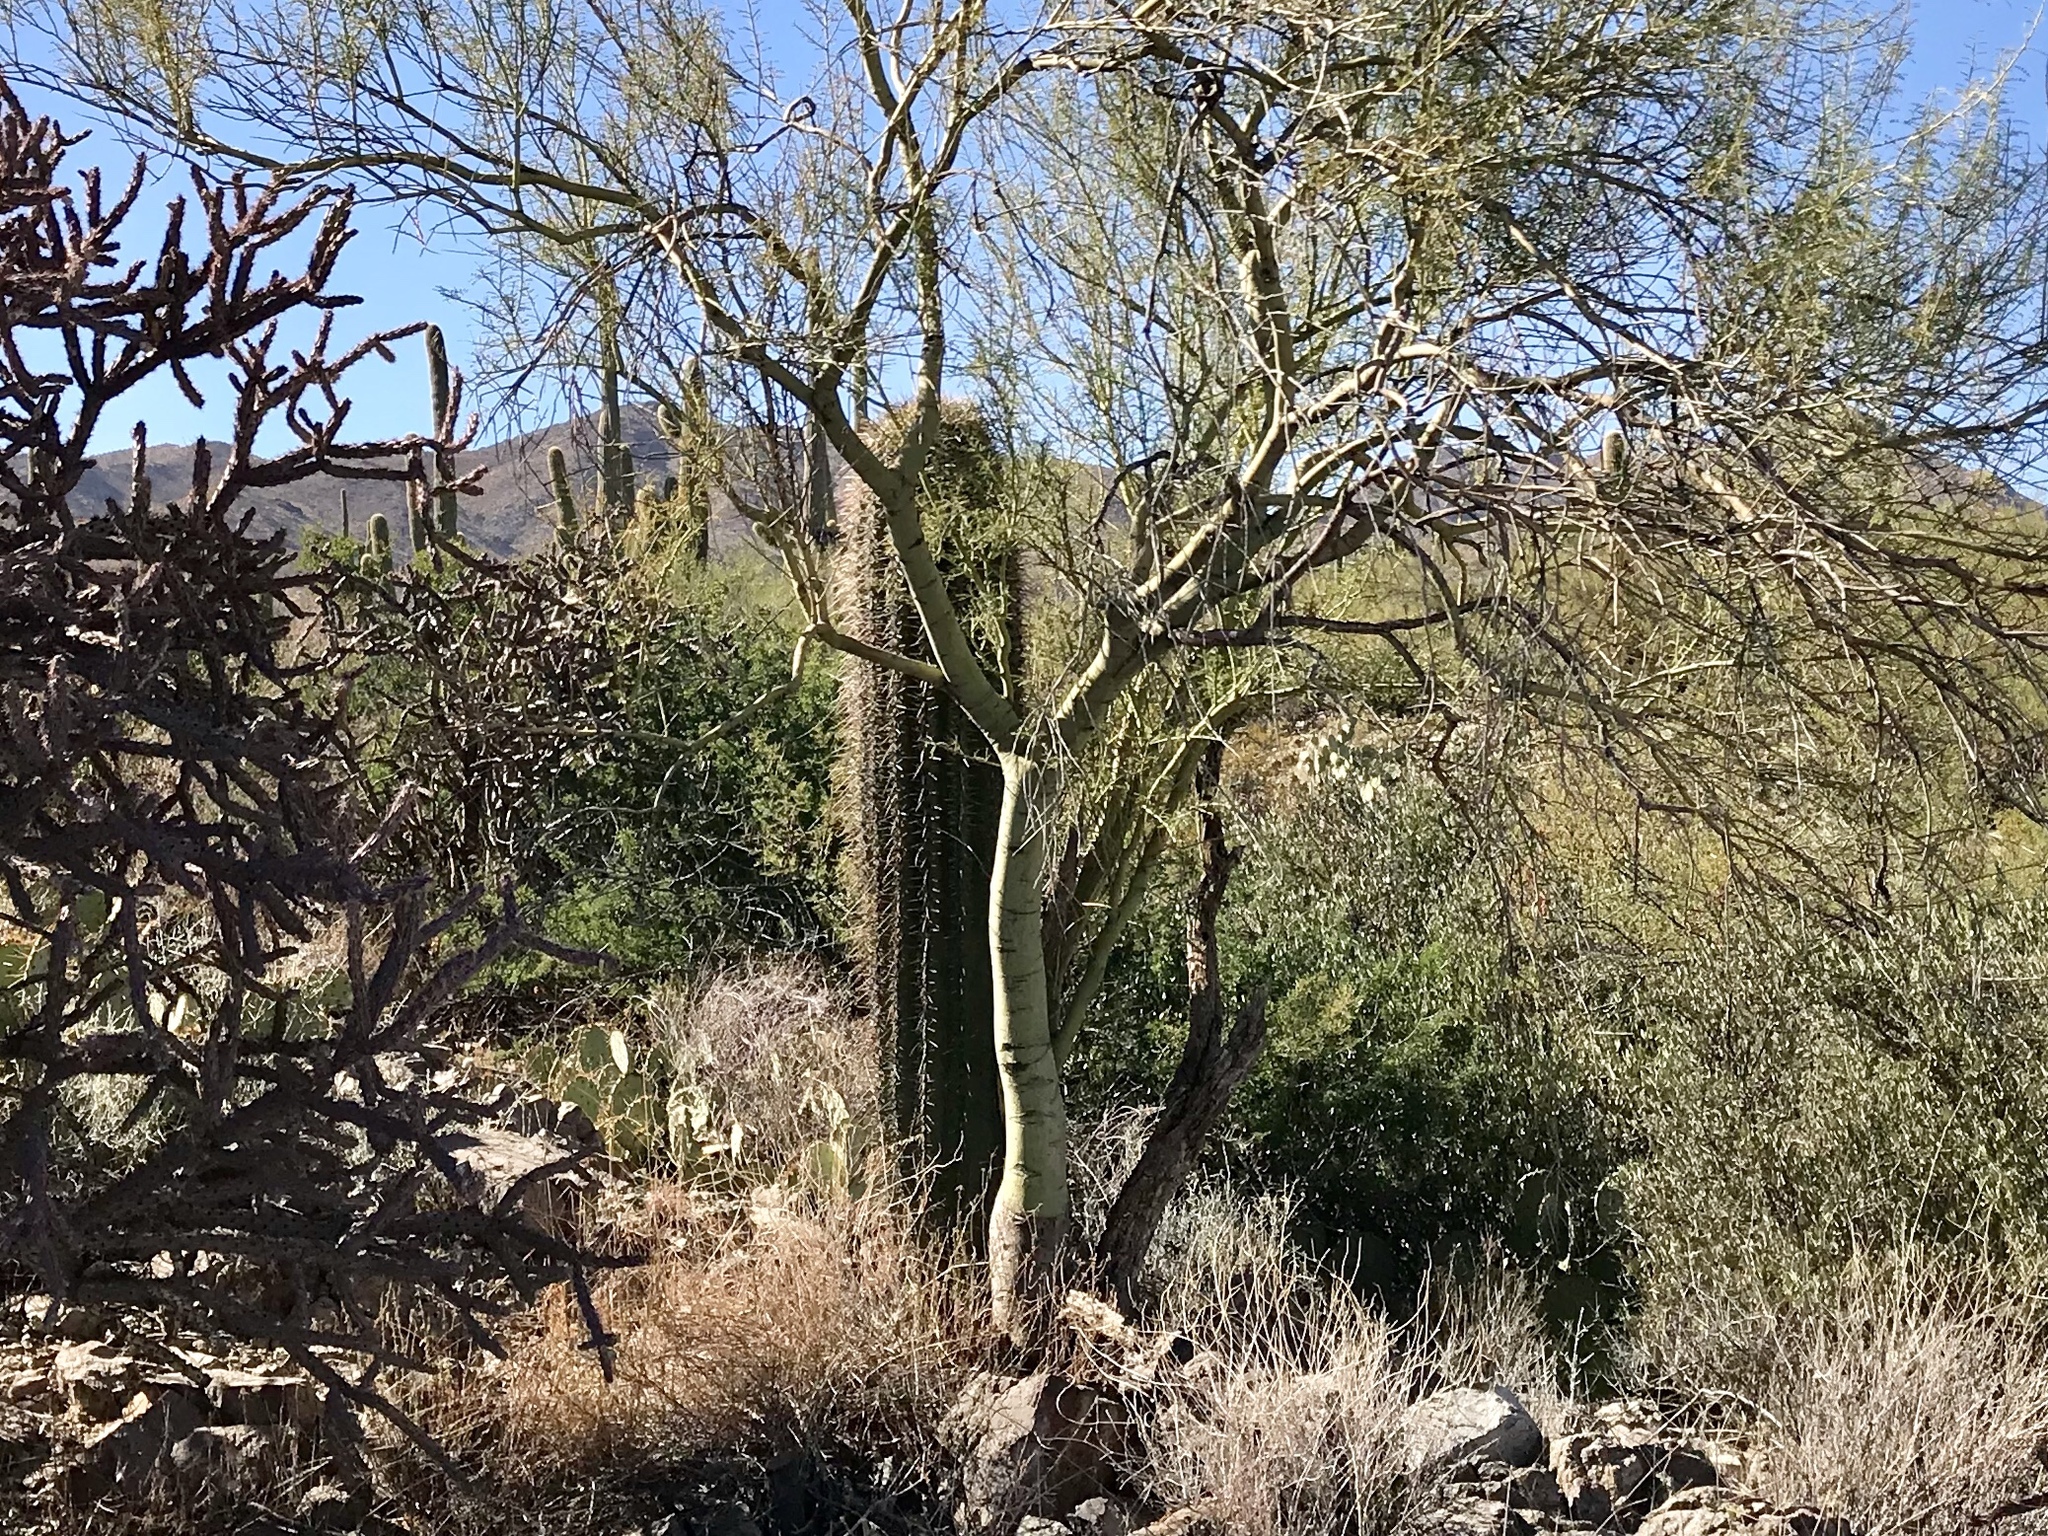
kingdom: Plantae
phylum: Tracheophyta
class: Magnoliopsida
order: Caryophyllales
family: Cactaceae
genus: Carnegiea
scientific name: Carnegiea gigantea
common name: Saguaro
